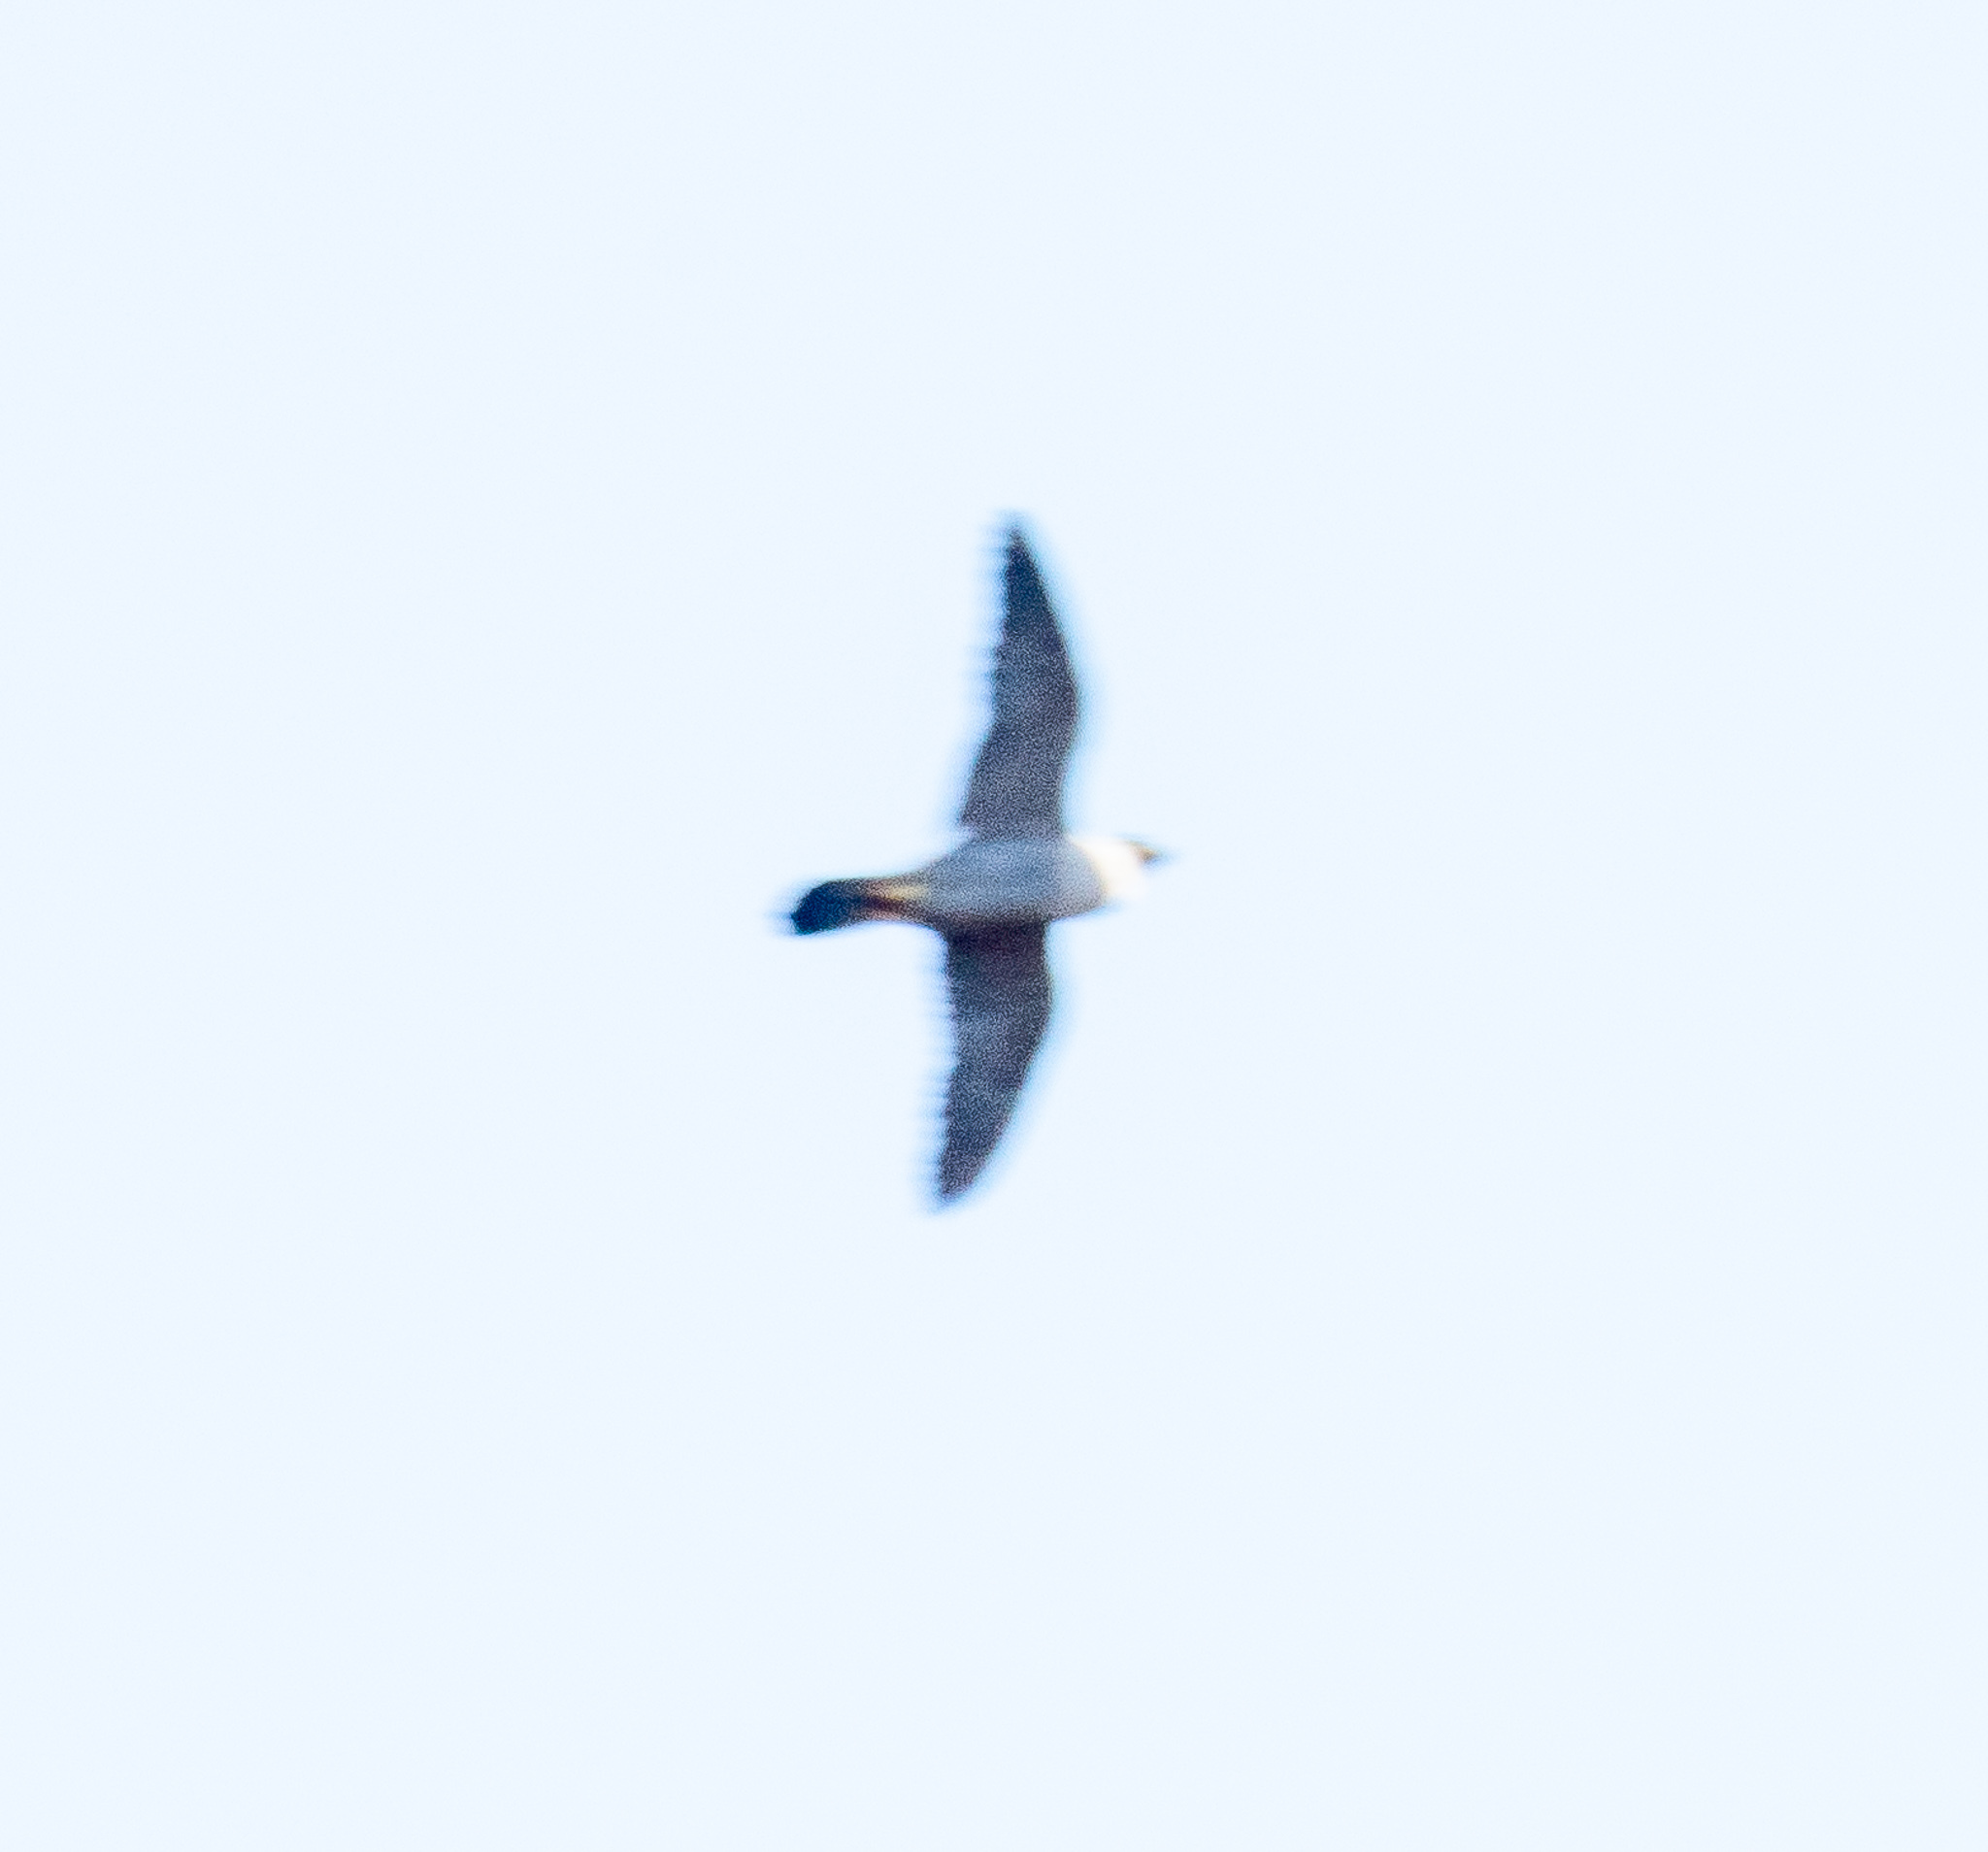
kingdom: Animalia
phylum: Chordata
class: Aves
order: Falconiformes
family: Falconidae
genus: Falco
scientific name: Falco peregrinus
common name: Peregrine falcon
